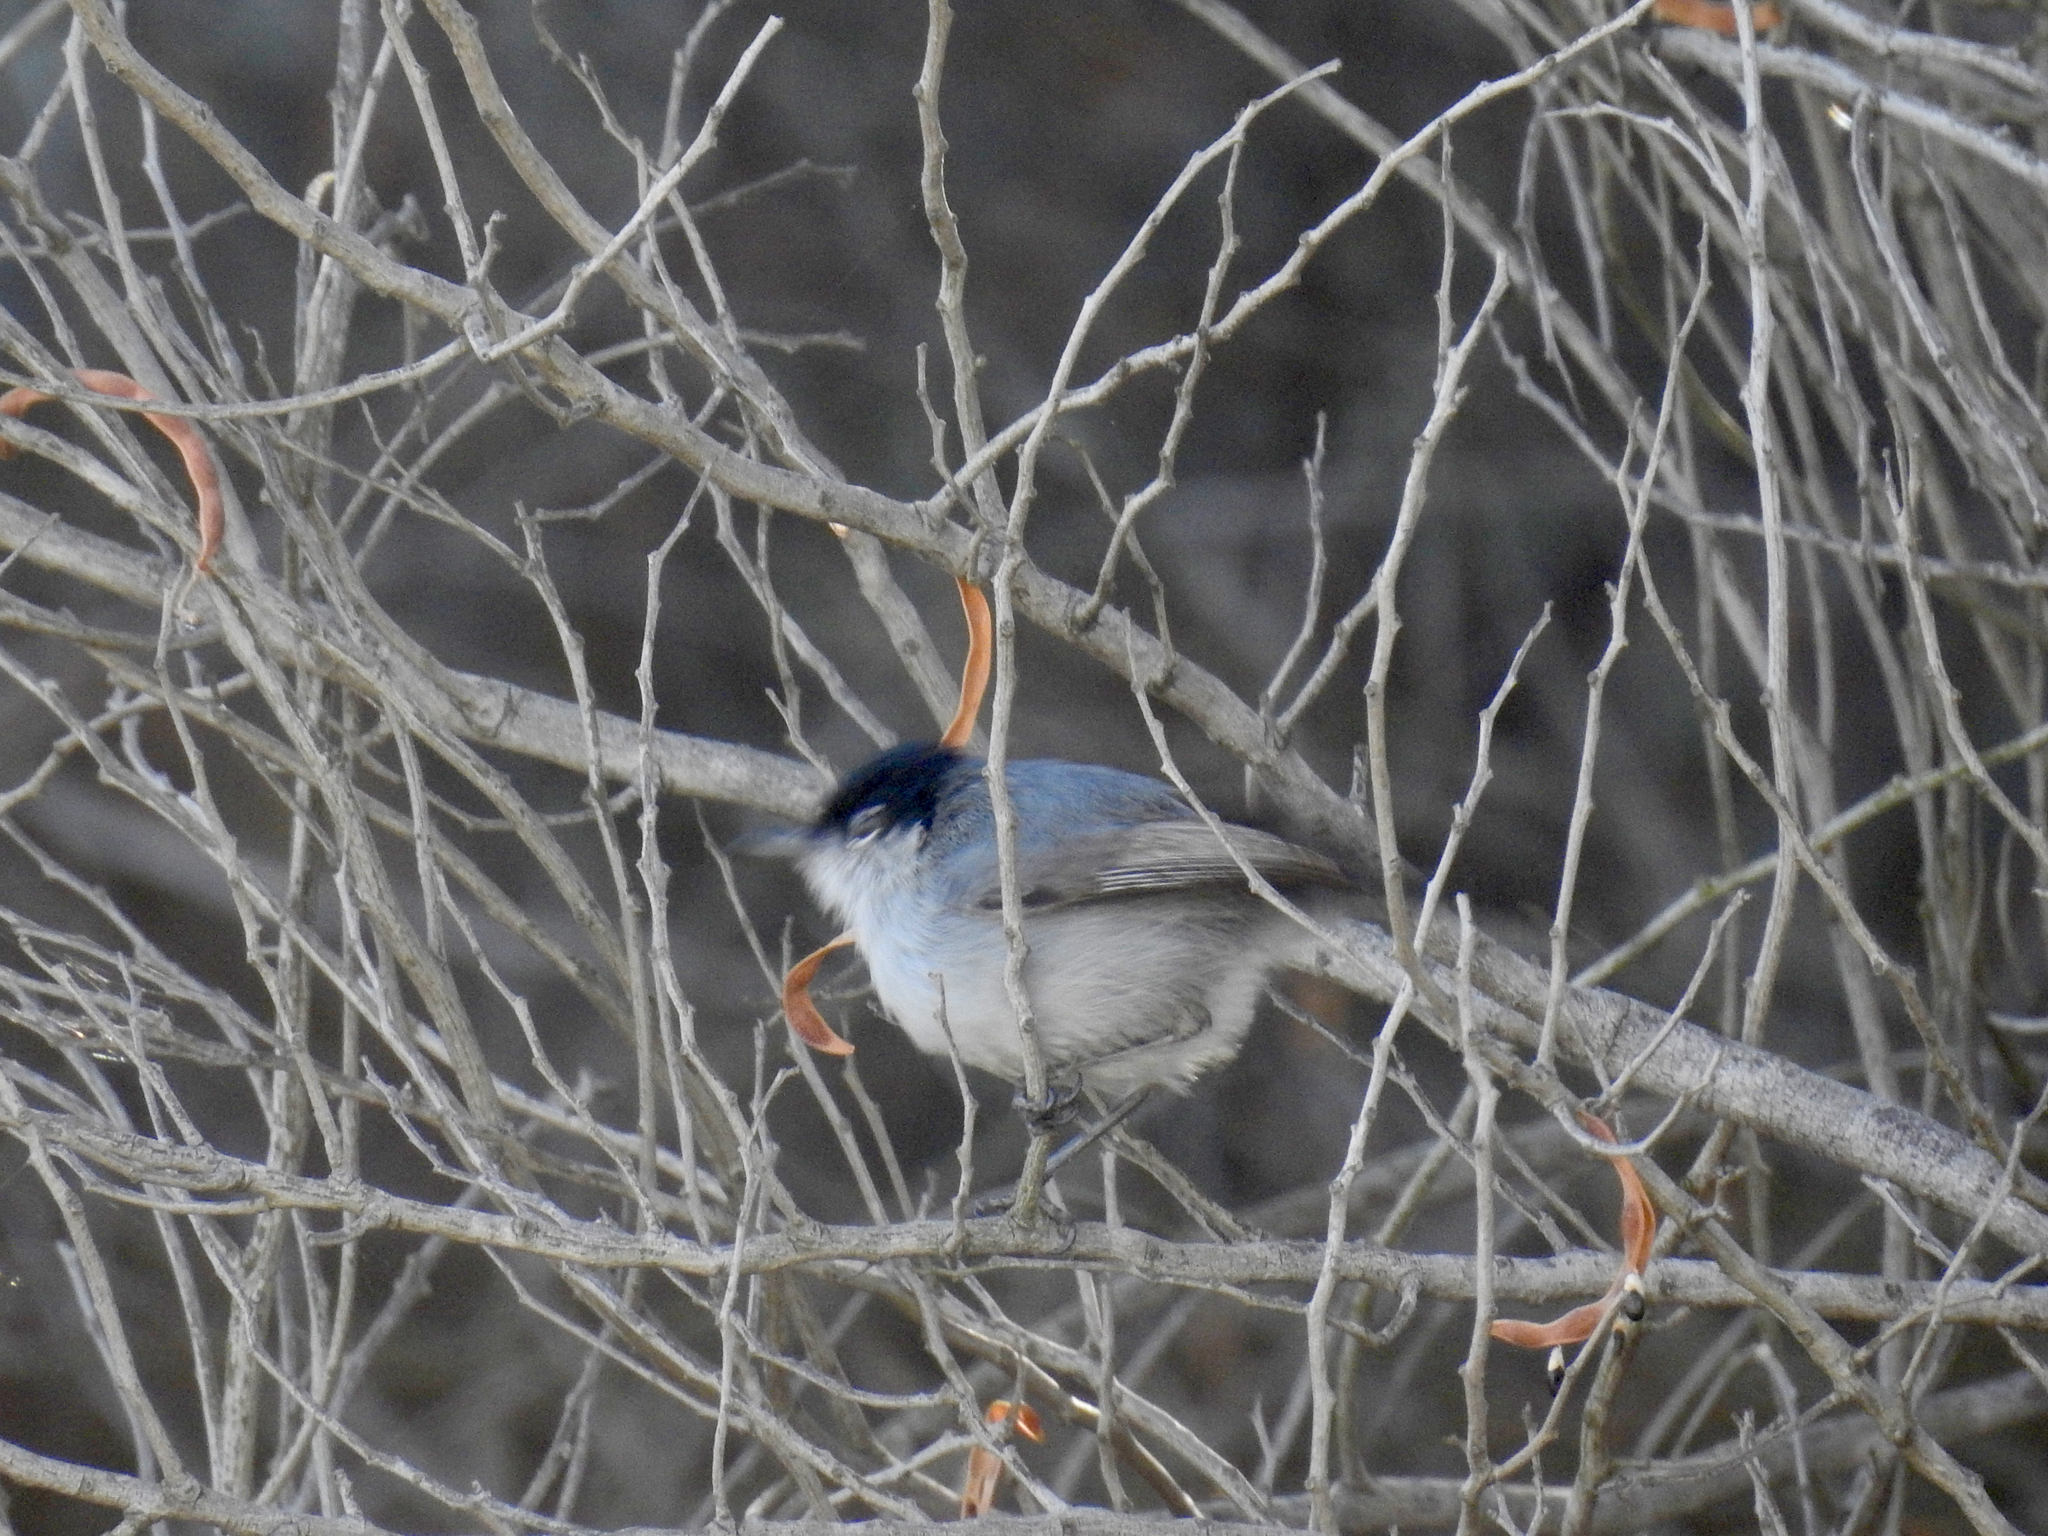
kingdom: Animalia
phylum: Chordata
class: Aves
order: Passeriformes
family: Polioptilidae
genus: Polioptila
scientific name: Polioptila californica
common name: California gnatcatcher
